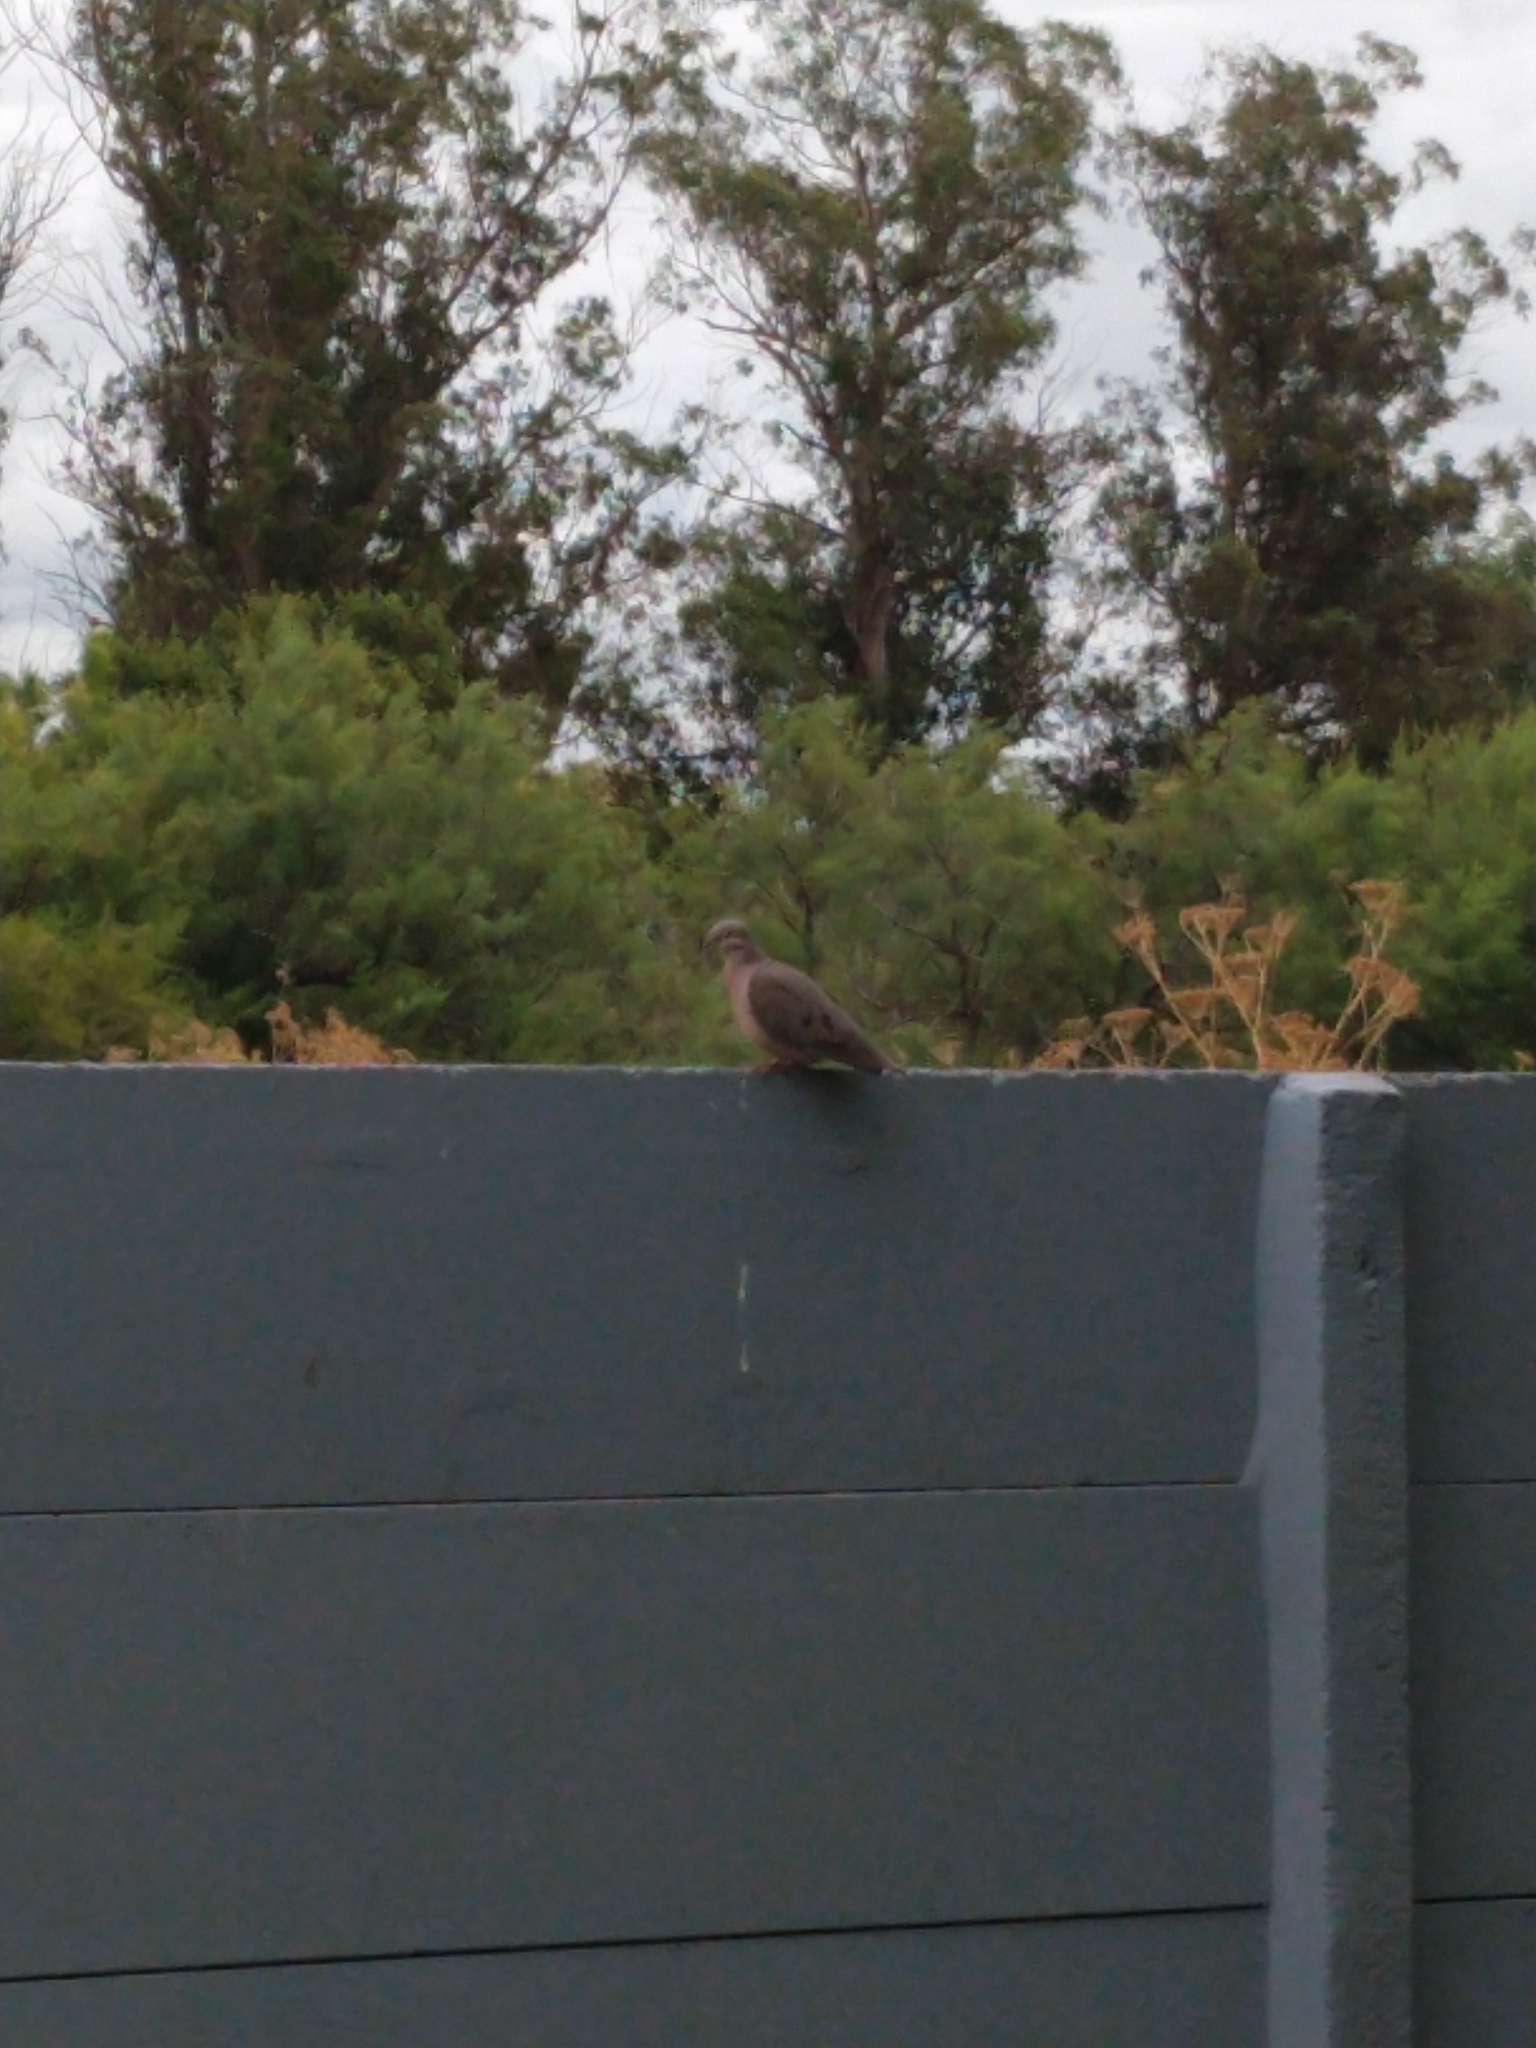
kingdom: Animalia
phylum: Chordata
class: Aves
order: Columbiformes
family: Columbidae
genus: Zenaida
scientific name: Zenaida auriculata
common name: Eared dove
